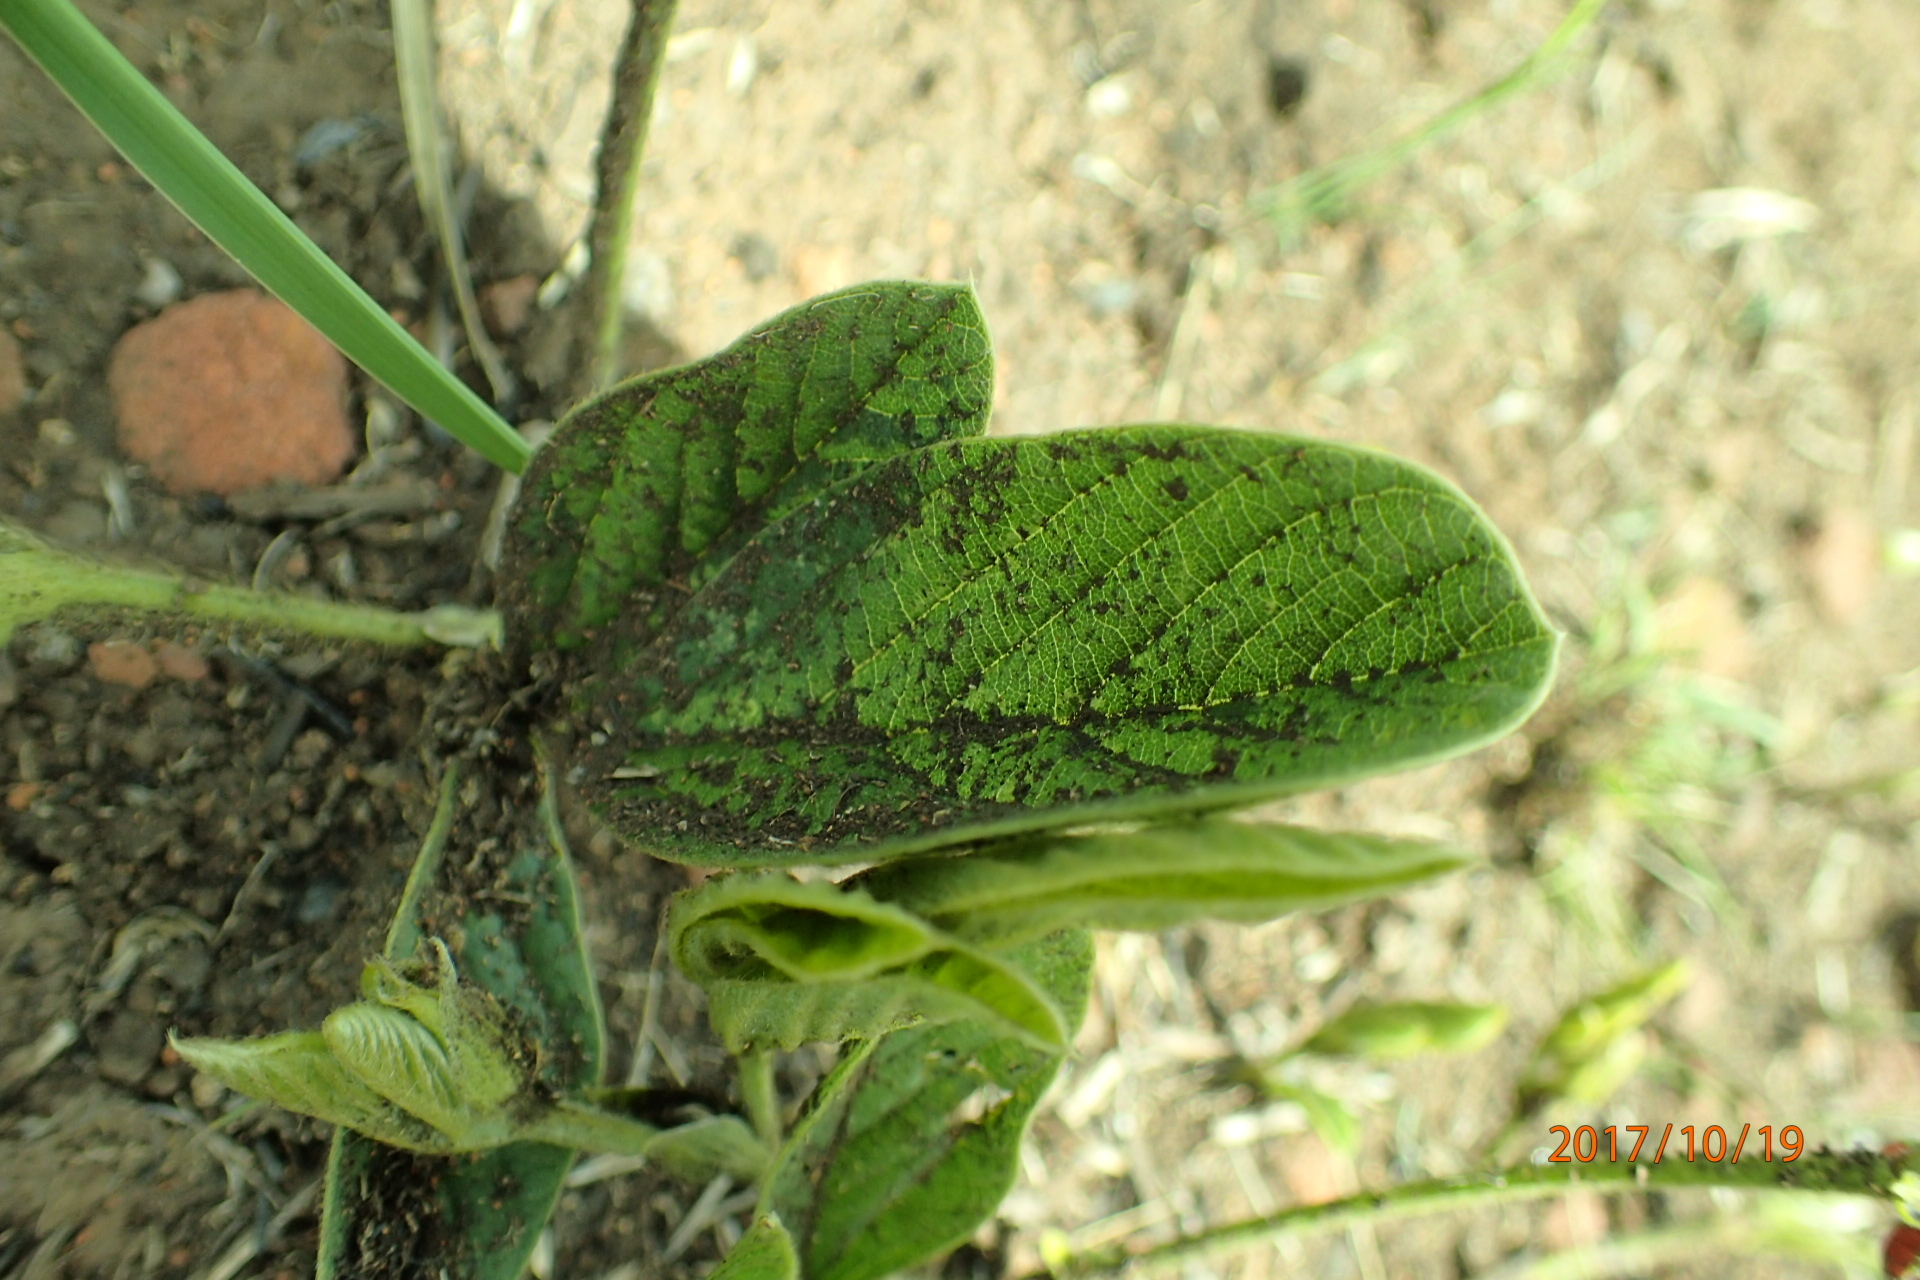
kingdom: Plantae
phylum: Tracheophyta
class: Magnoliopsida
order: Fabales
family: Fabaceae
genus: Eriosema
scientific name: Eriosema distinctum
